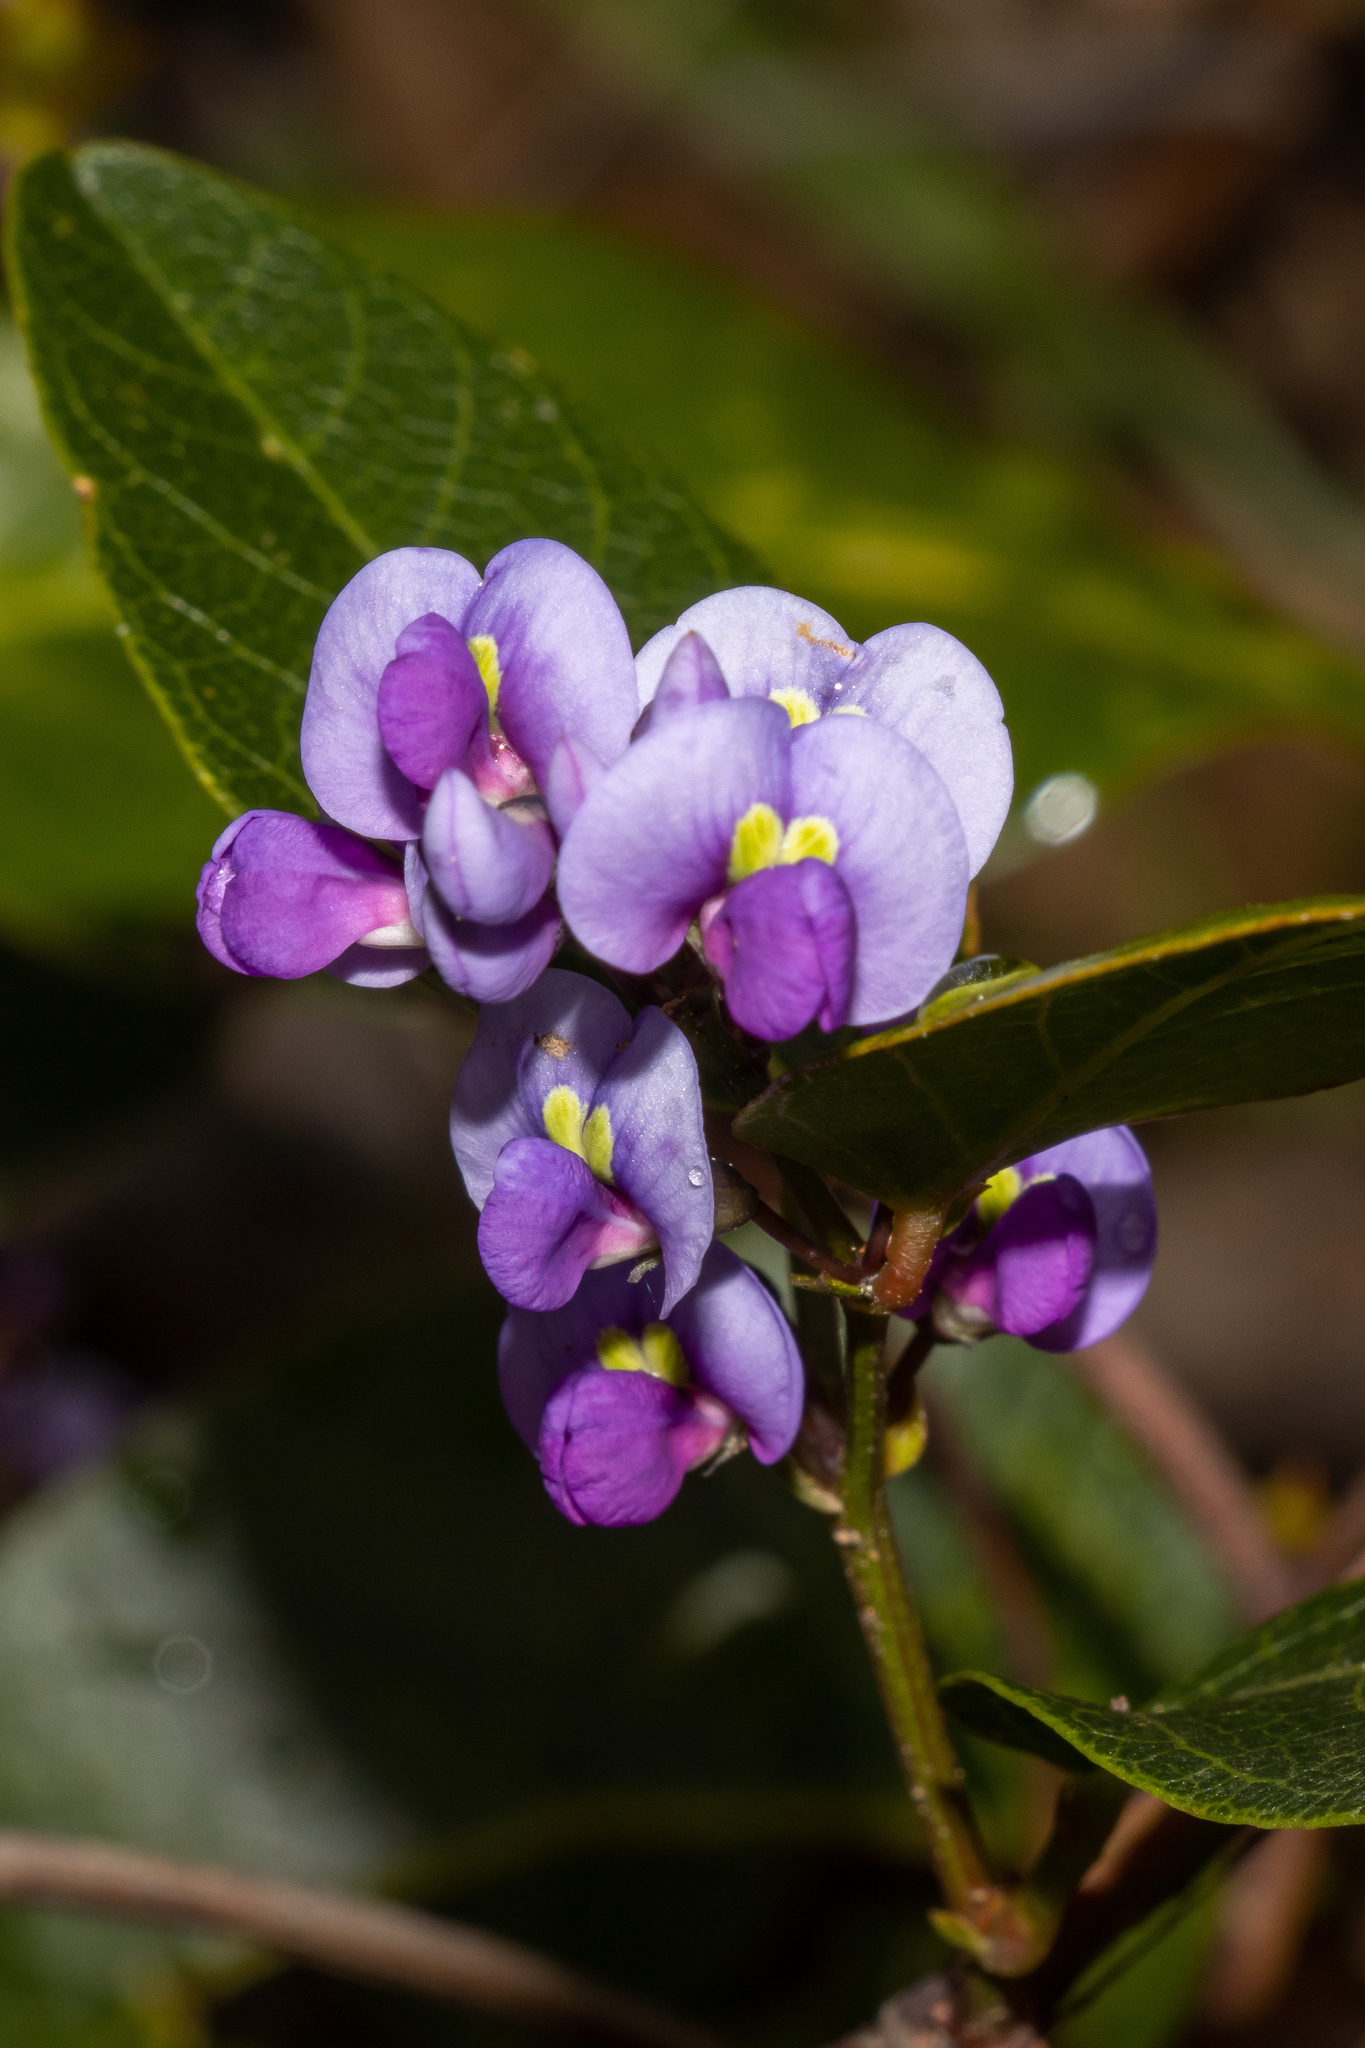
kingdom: Plantae
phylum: Tracheophyta
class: Magnoliopsida
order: Fabales
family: Fabaceae
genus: Hardenbergia
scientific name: Hardenbergia violacea
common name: Coral-pea
